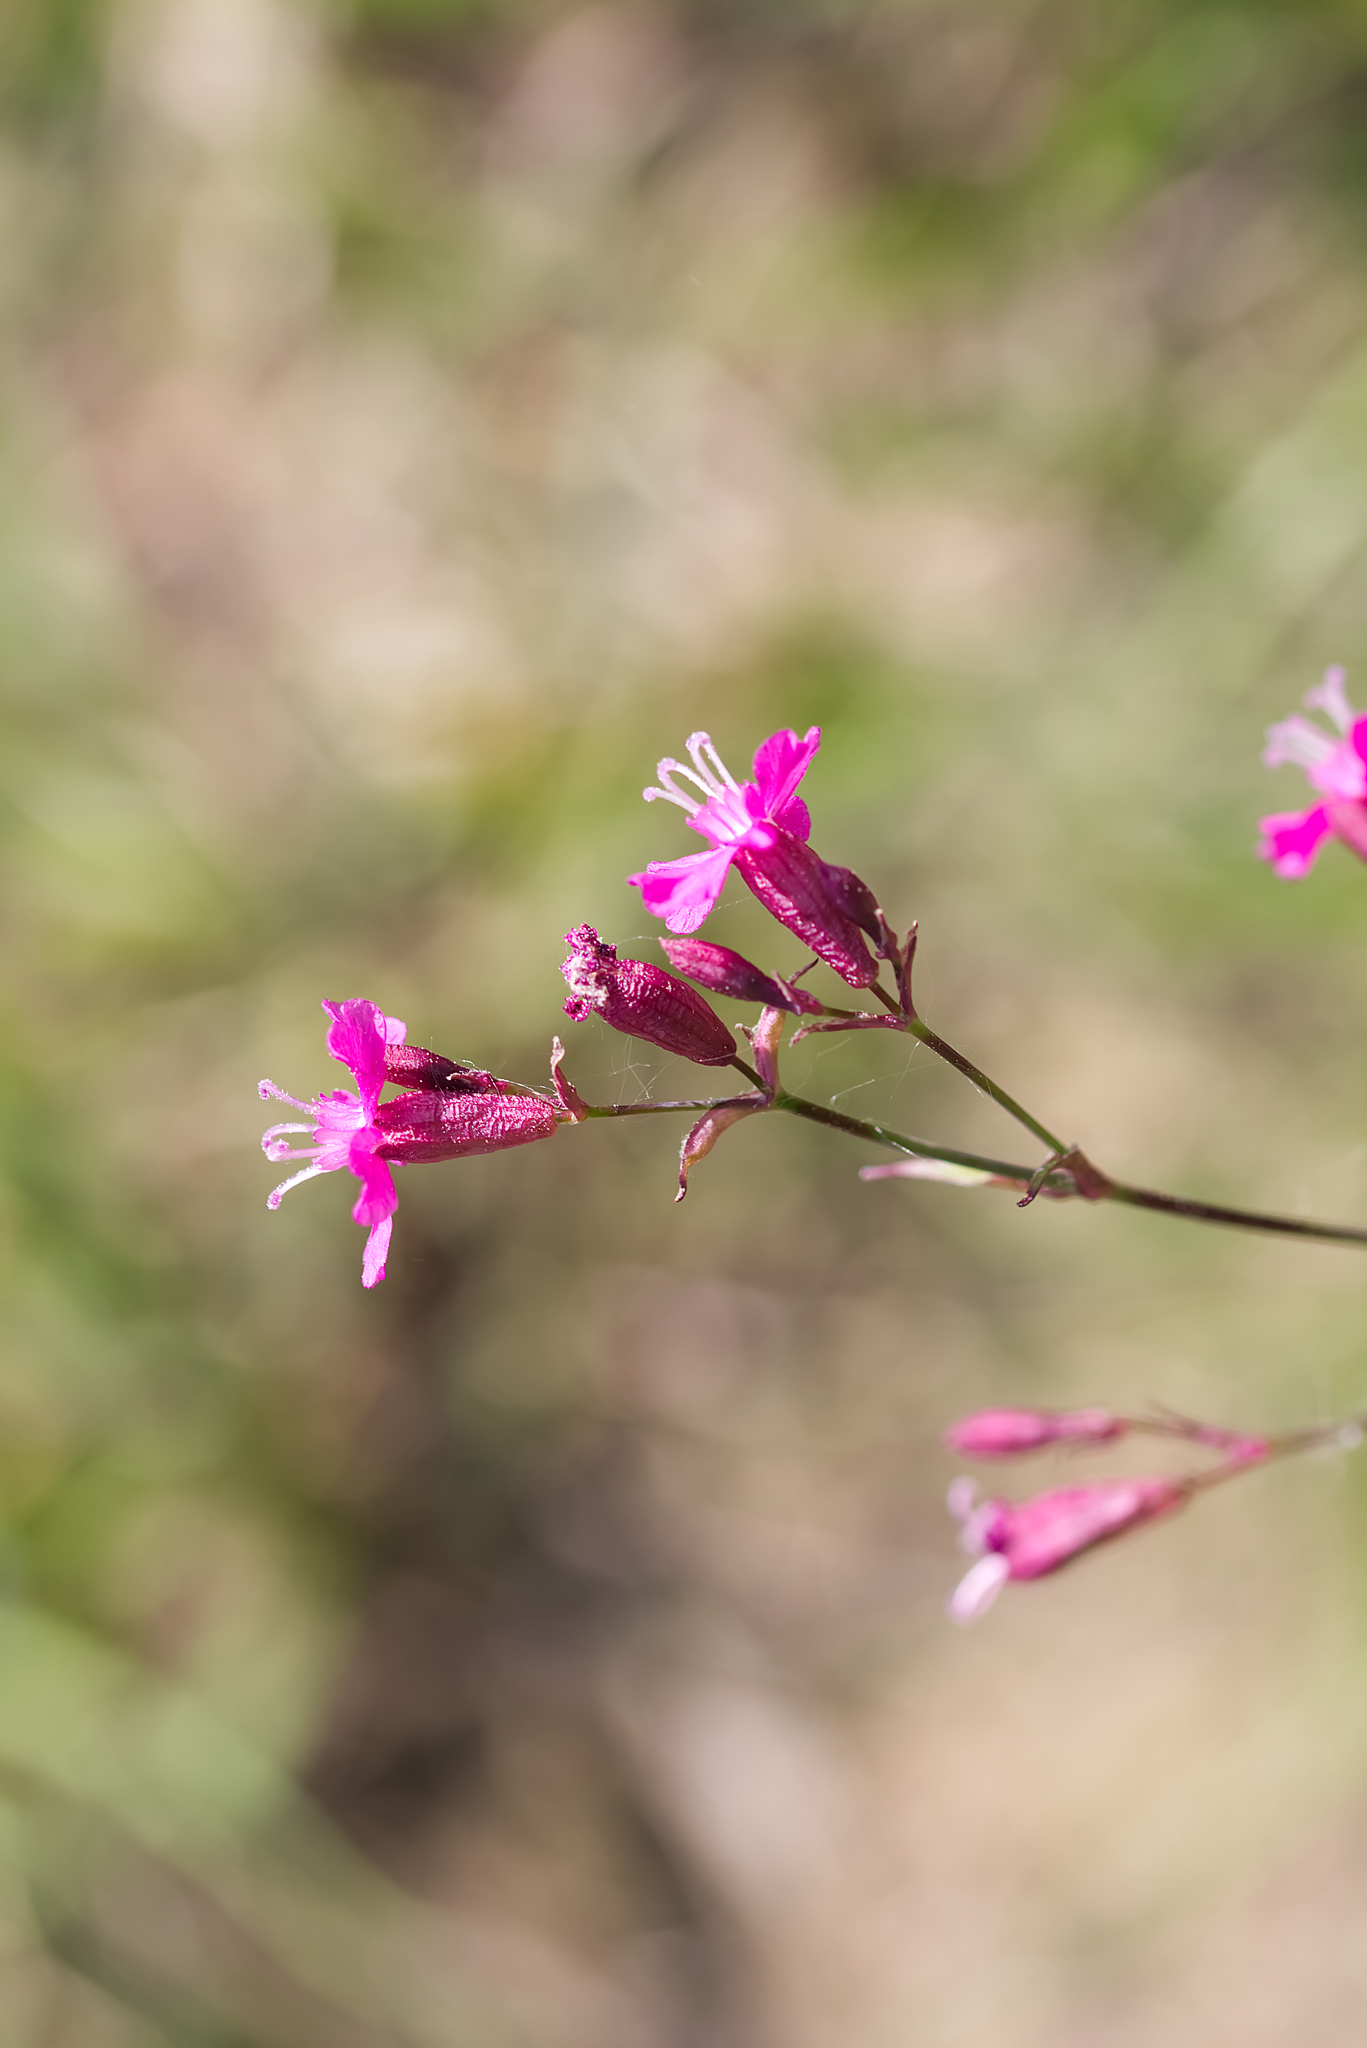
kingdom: Plantae
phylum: Tracheophyta
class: Magnoliopsida
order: Caryophyllales
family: Caryophyllaceae
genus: Viscaria
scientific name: Viscaria vulgaris
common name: Clammy campion
